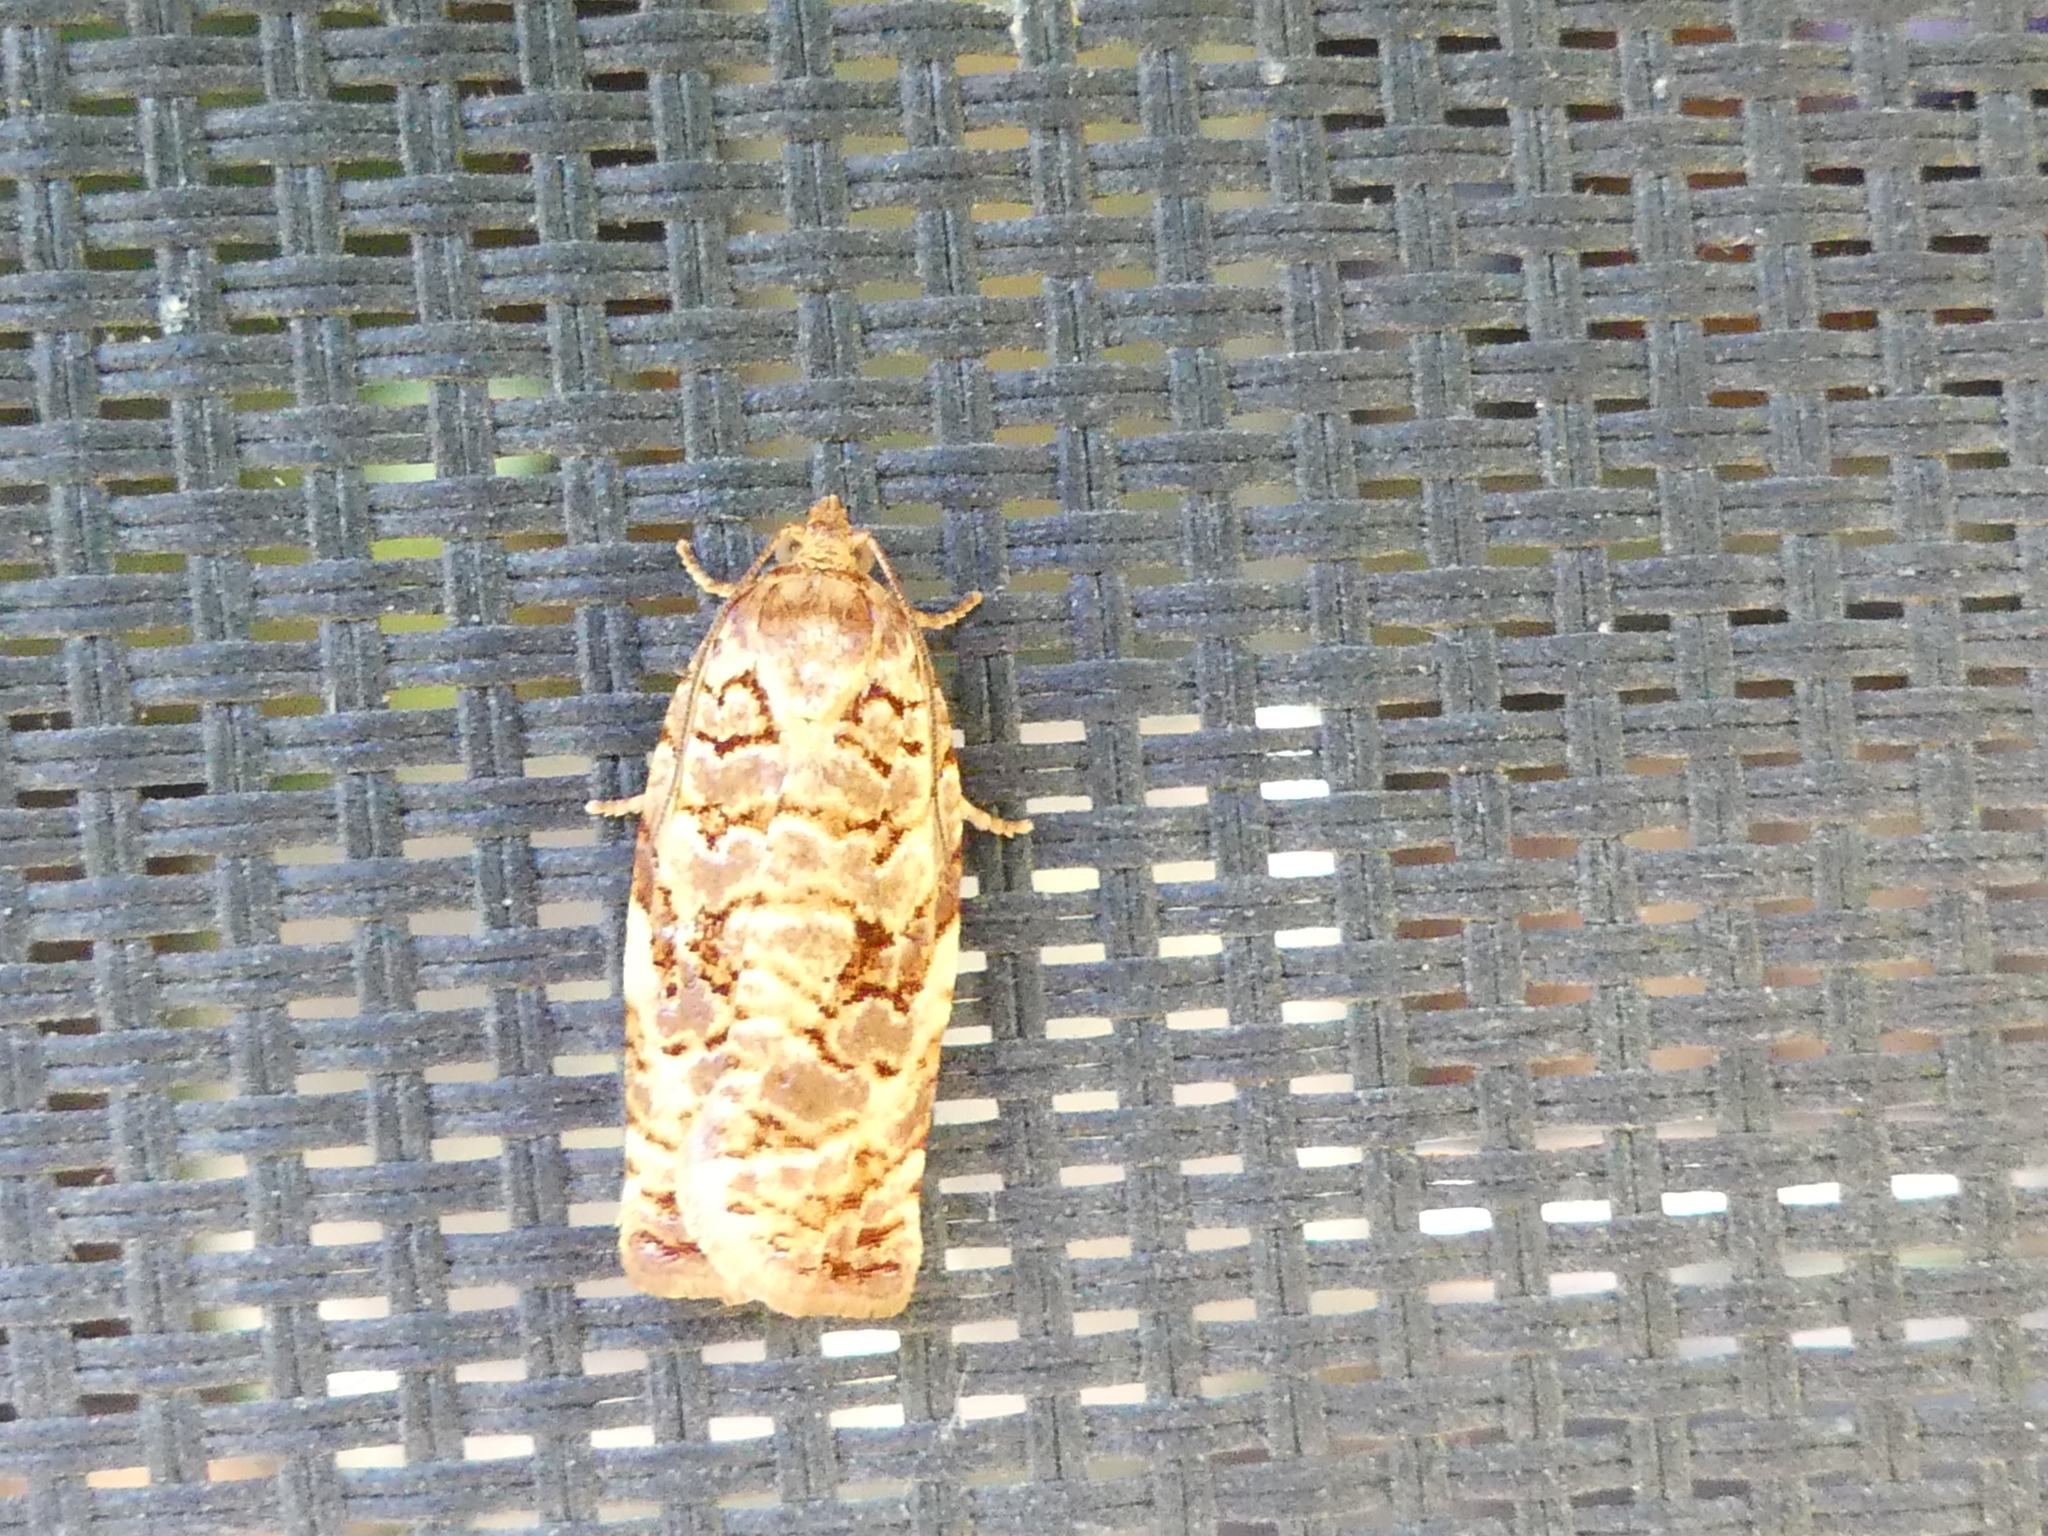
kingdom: Animalia
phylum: Arthropoda
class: Insecta
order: Lepidoptera
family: Tortricidae
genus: Archips
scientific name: Archips georgiana
